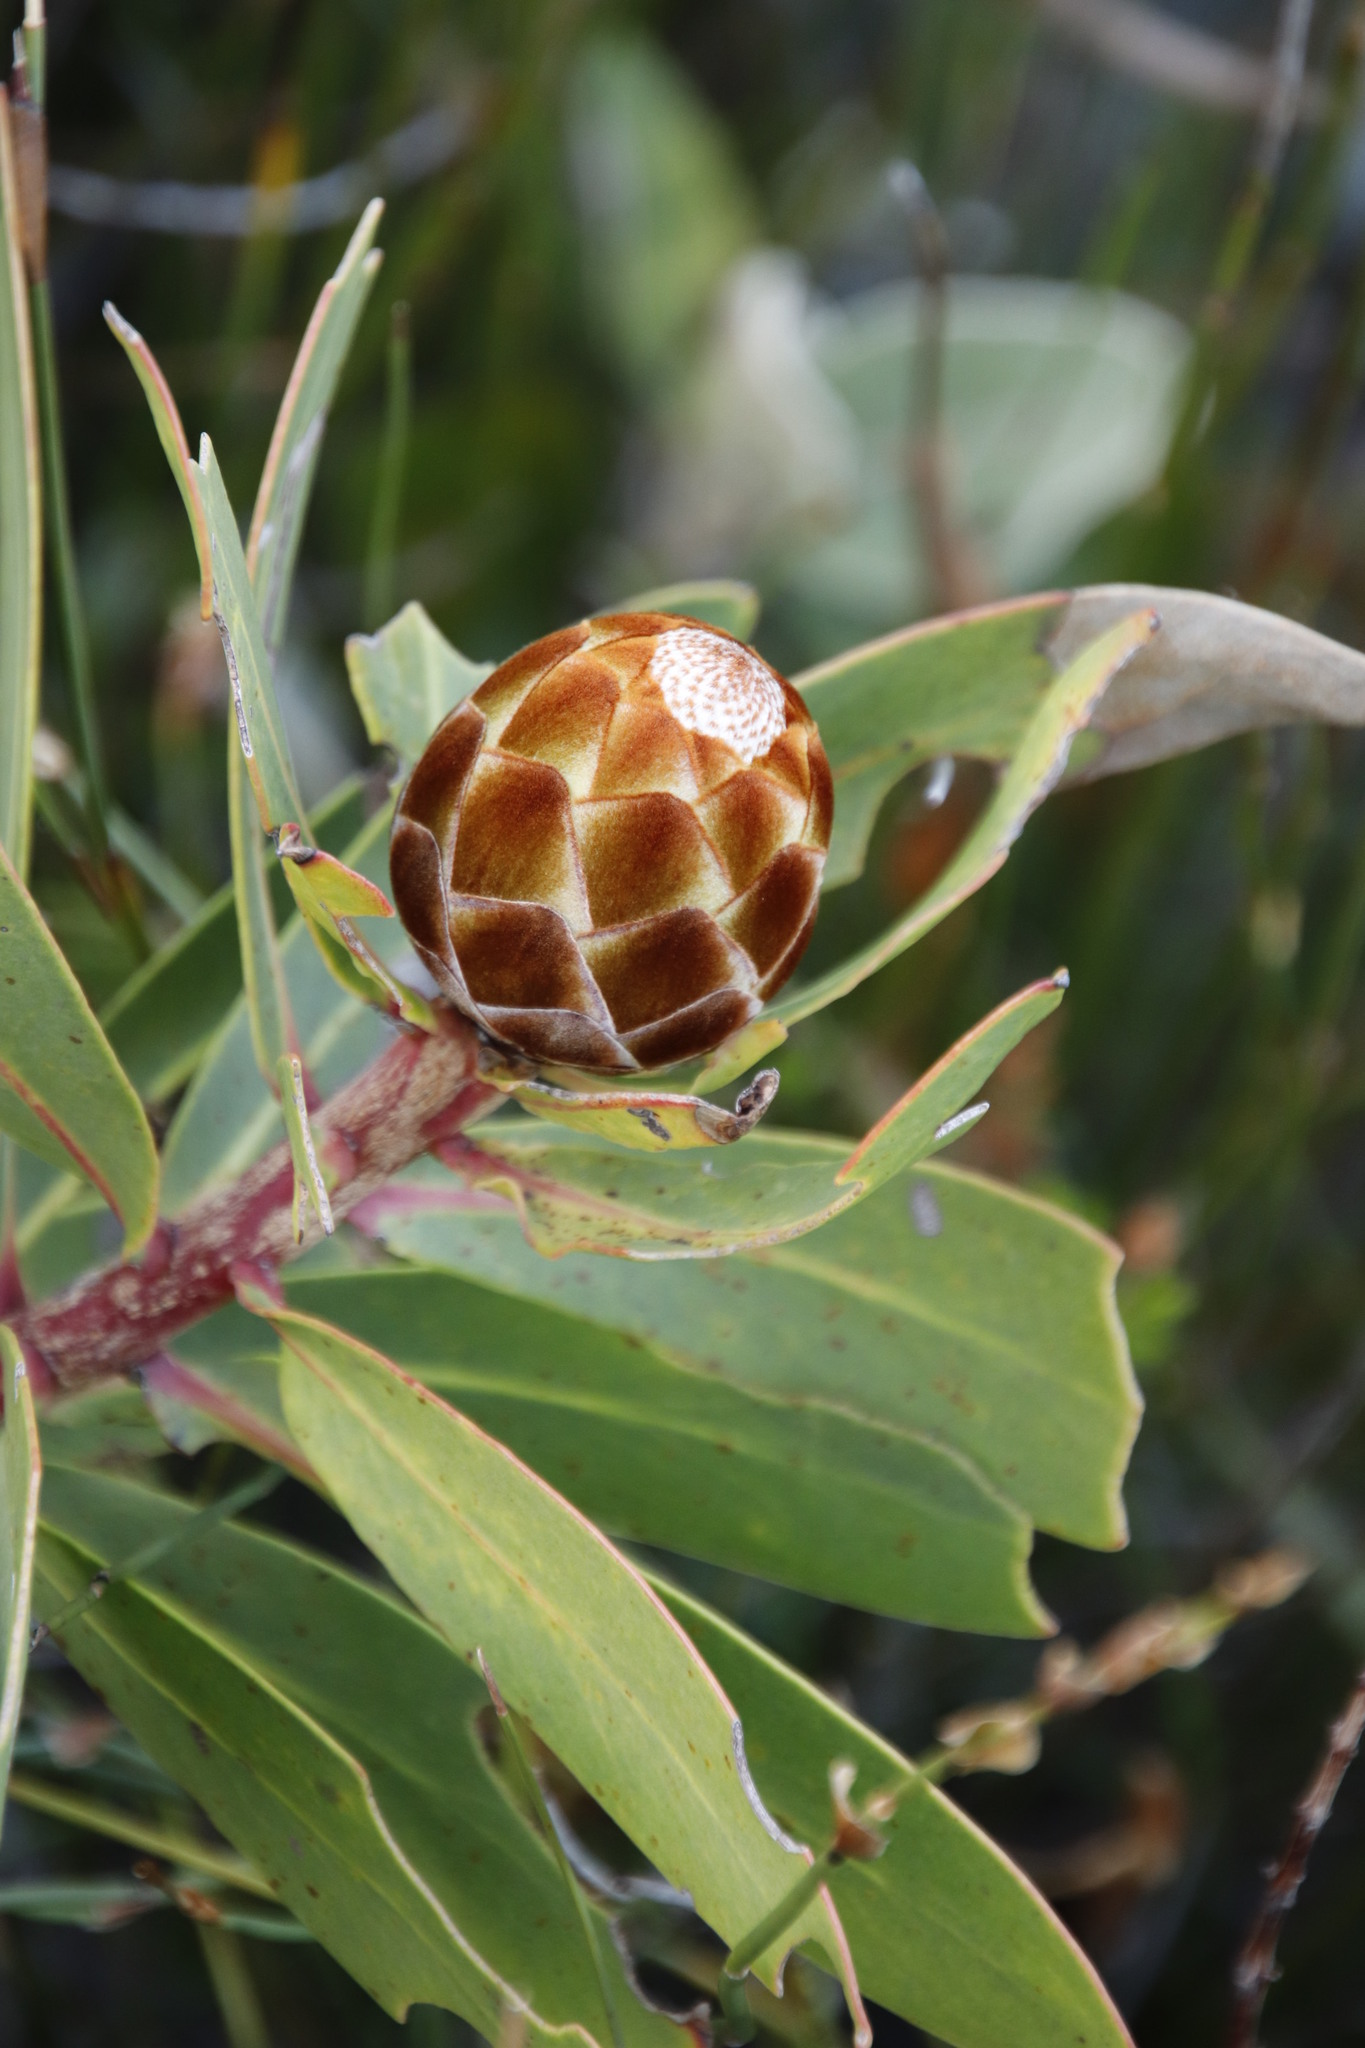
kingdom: Plantae
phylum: Tracheophyta
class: Magnoliopsida
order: Proteales
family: Proteaceae
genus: Protea
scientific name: Protea nitida
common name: Tree protea
